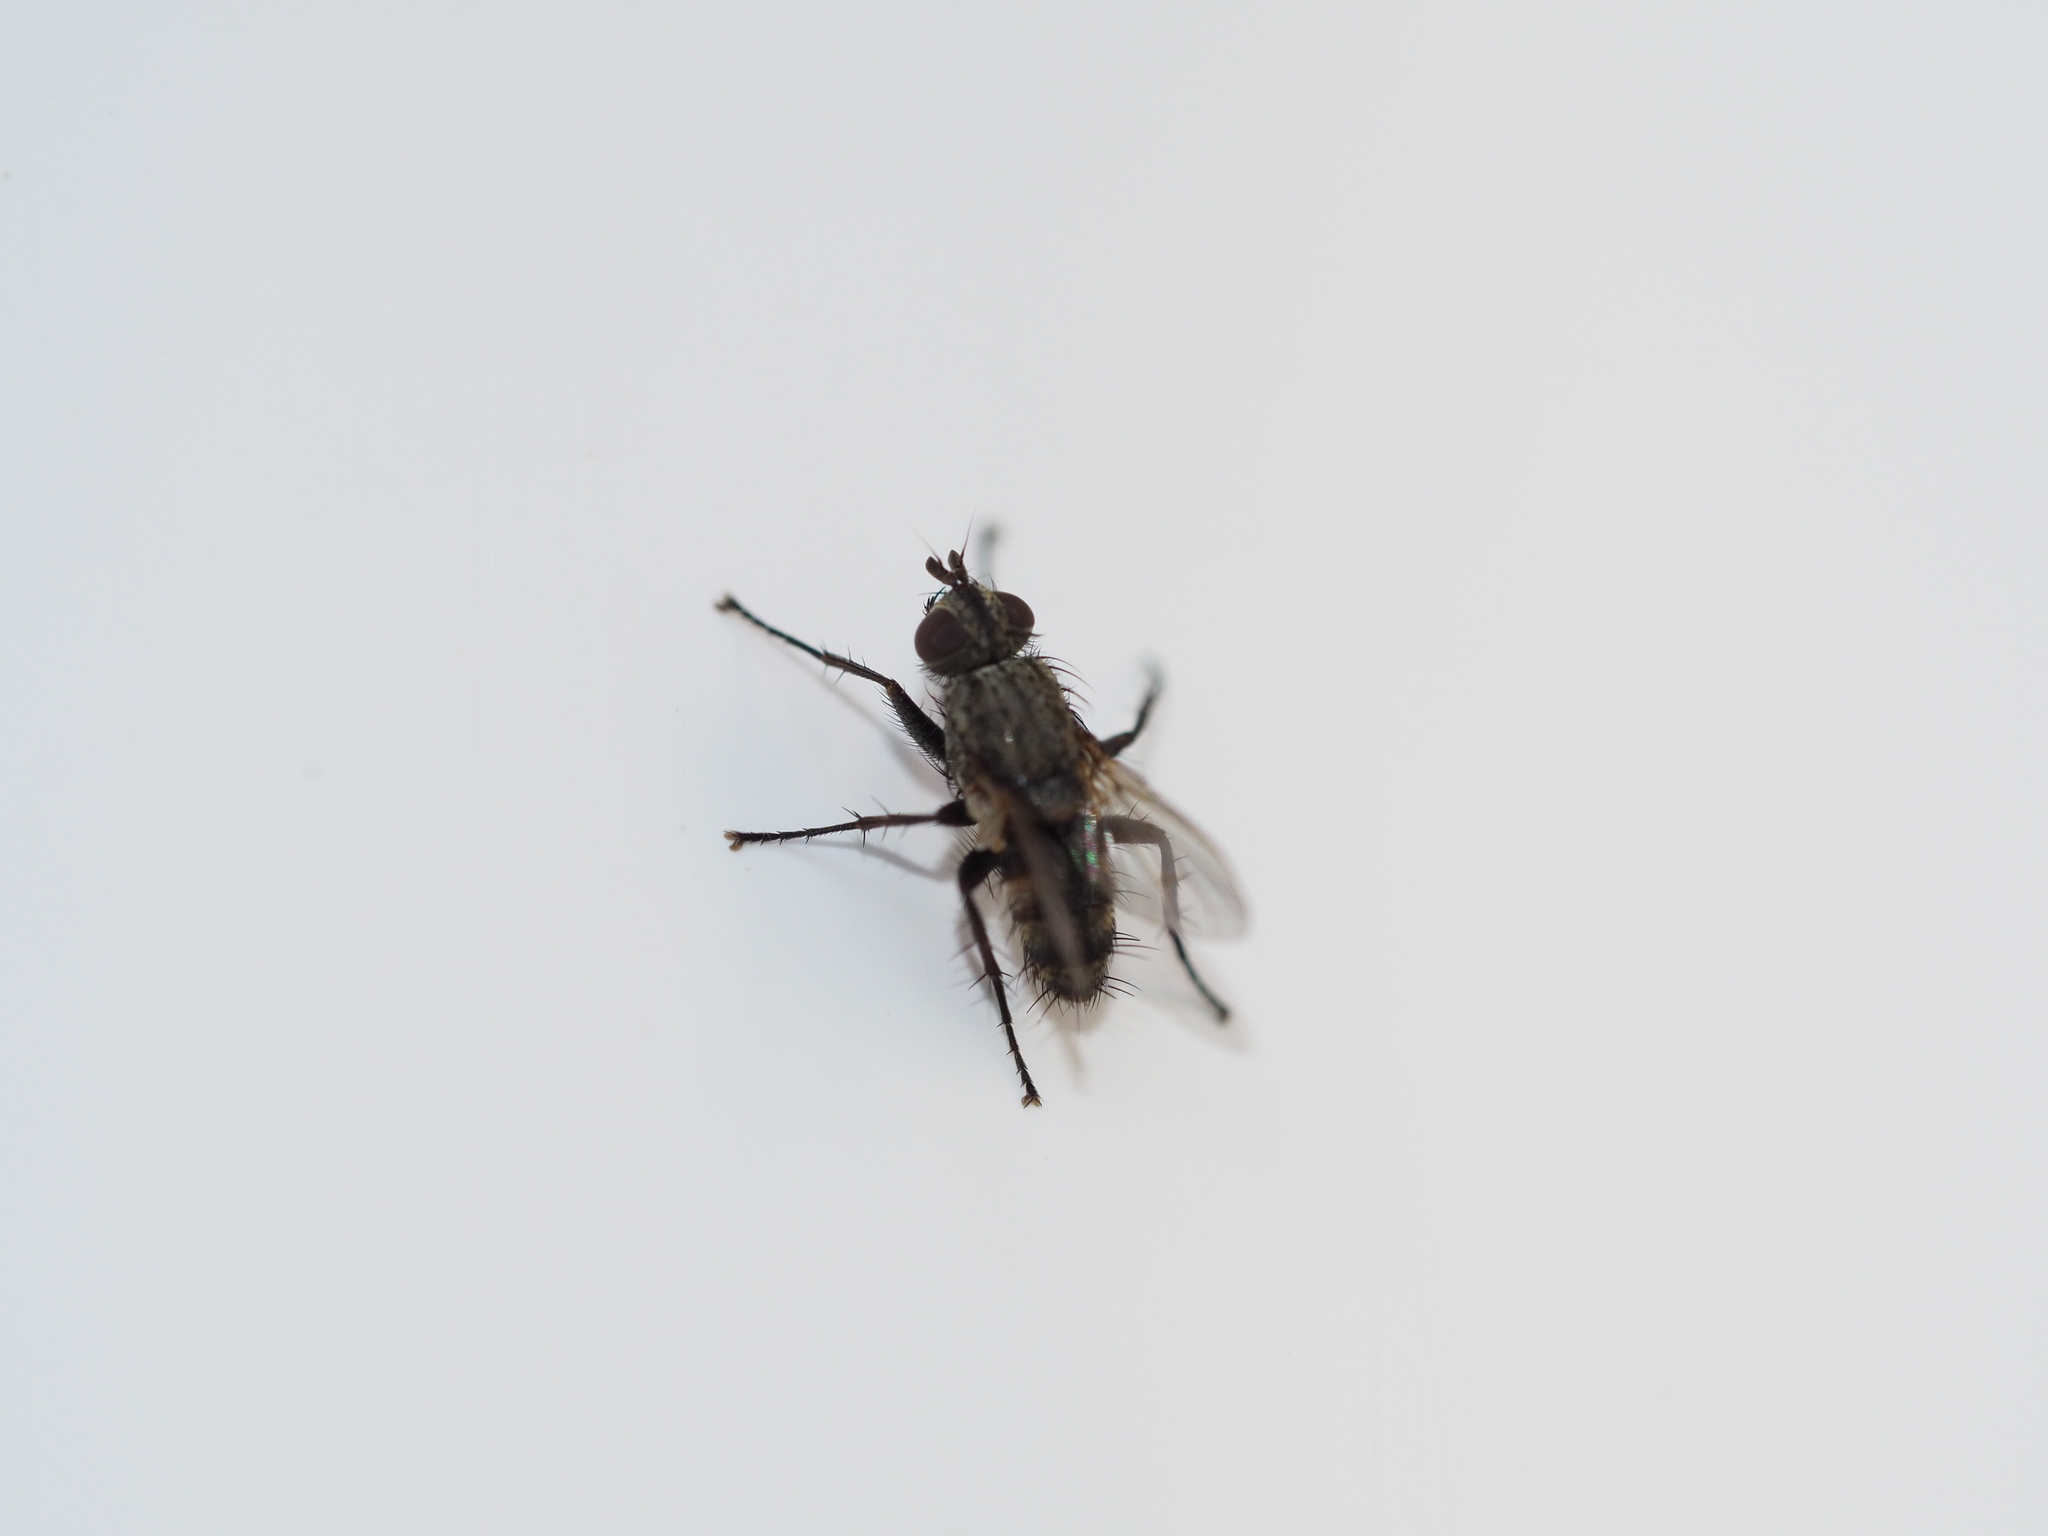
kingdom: Animalia
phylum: Arthropoda
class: Insecta
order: Diptera
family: Calliphoridae
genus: Tricogena
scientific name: Tricogena rubricosa
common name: Red-shinned woodlouse-fly
